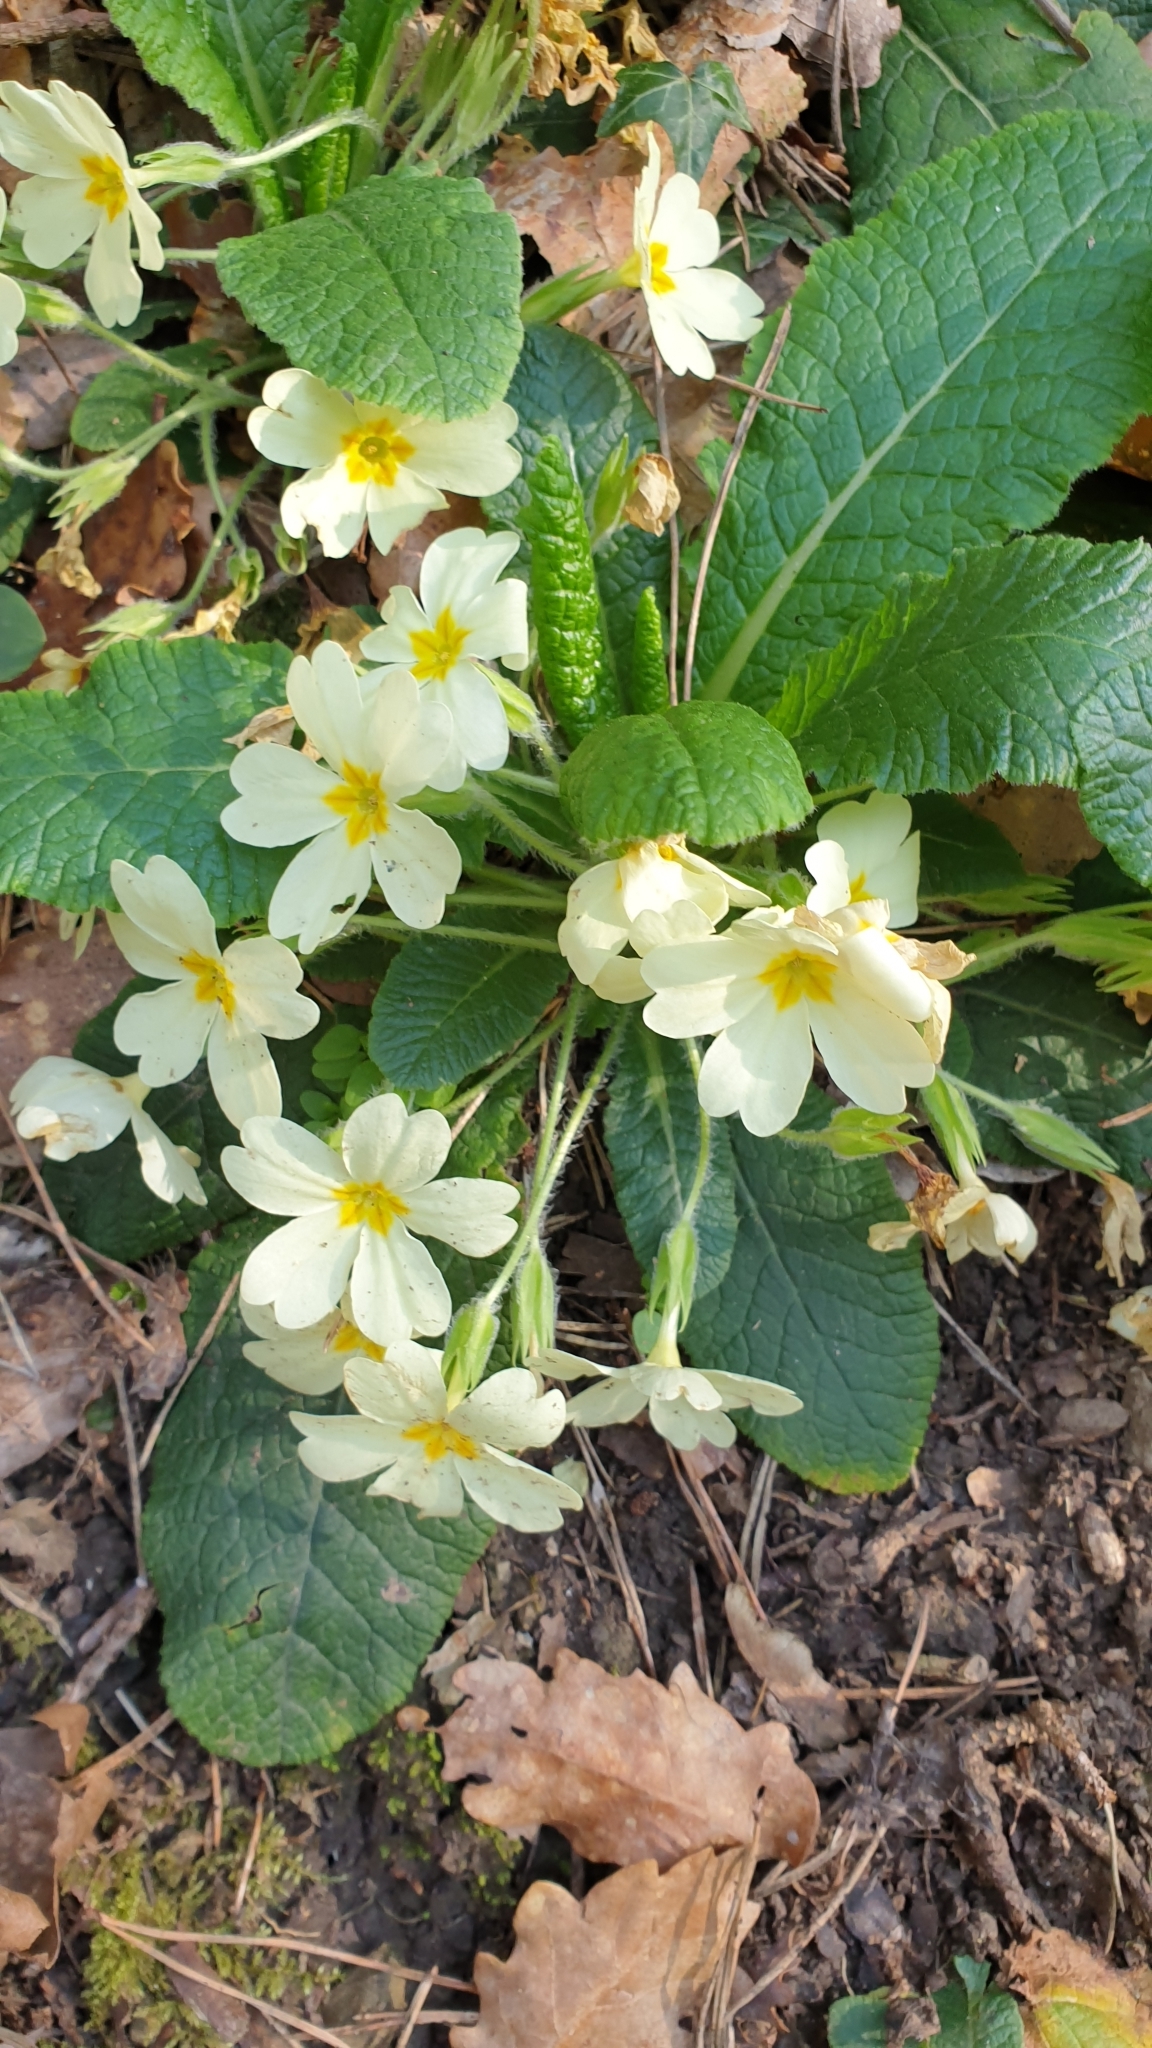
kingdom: Plantae
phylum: Tracheophyta
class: Magnoliopsida
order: Ericales
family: Primulaceae
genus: Primula
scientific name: Primula vulgaris
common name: Primrose
